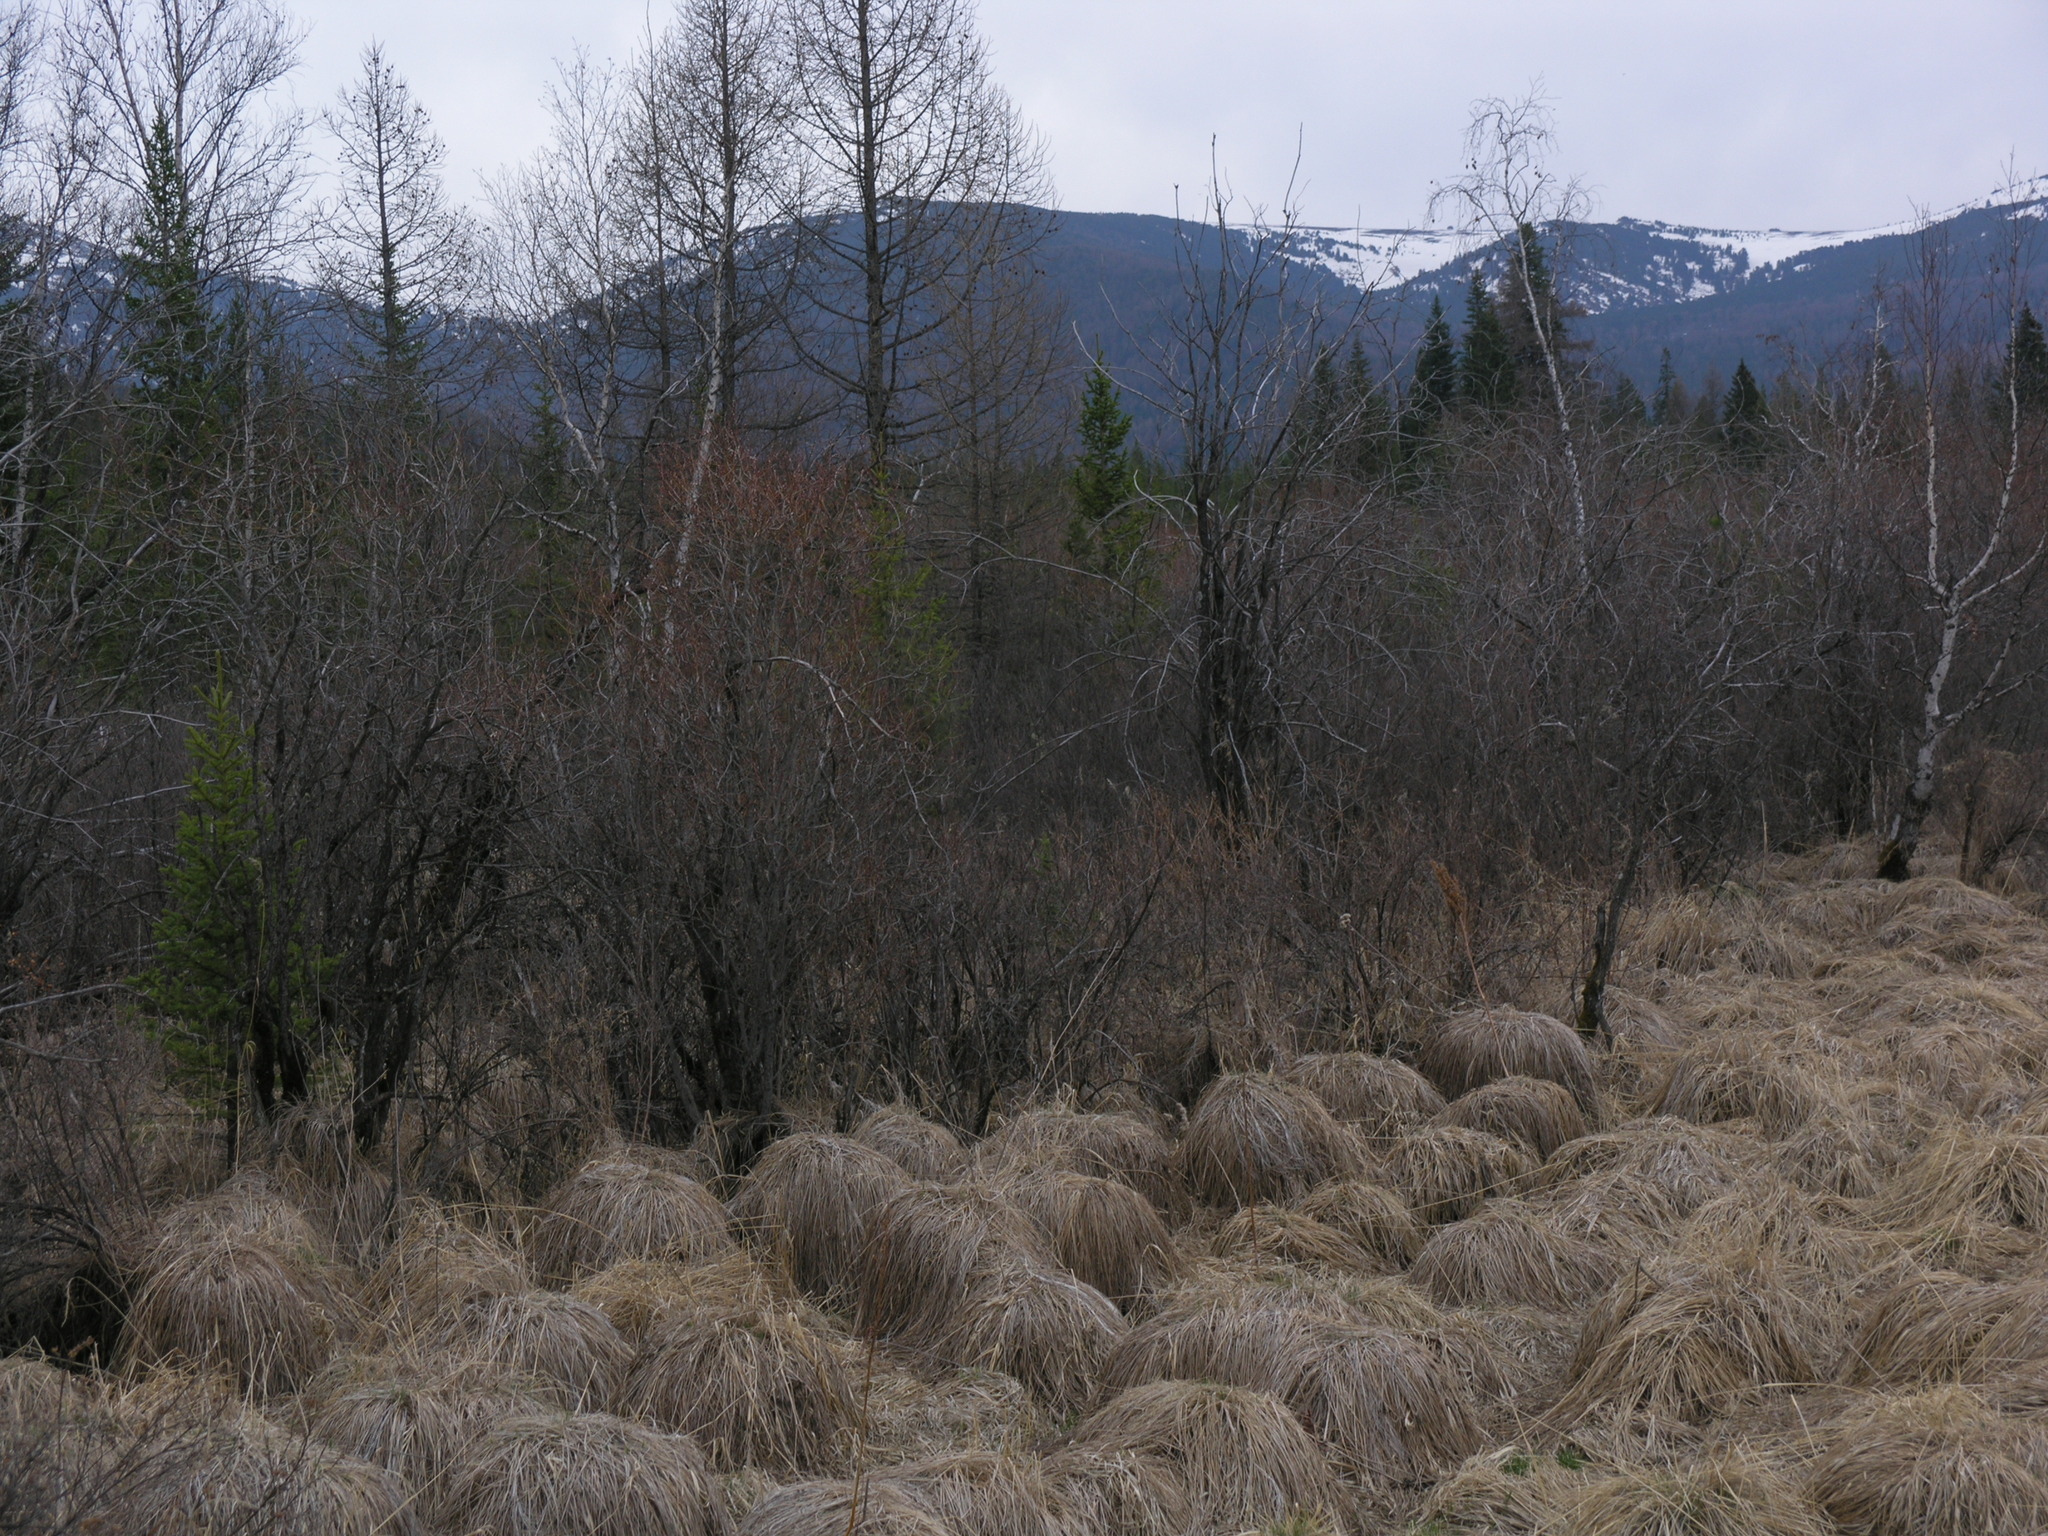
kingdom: Plantae
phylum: Tracheophyta
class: Pinopsida
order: Pinales
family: Pinaceae
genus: Larix
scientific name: Larix sibirica
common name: Siberian larch
